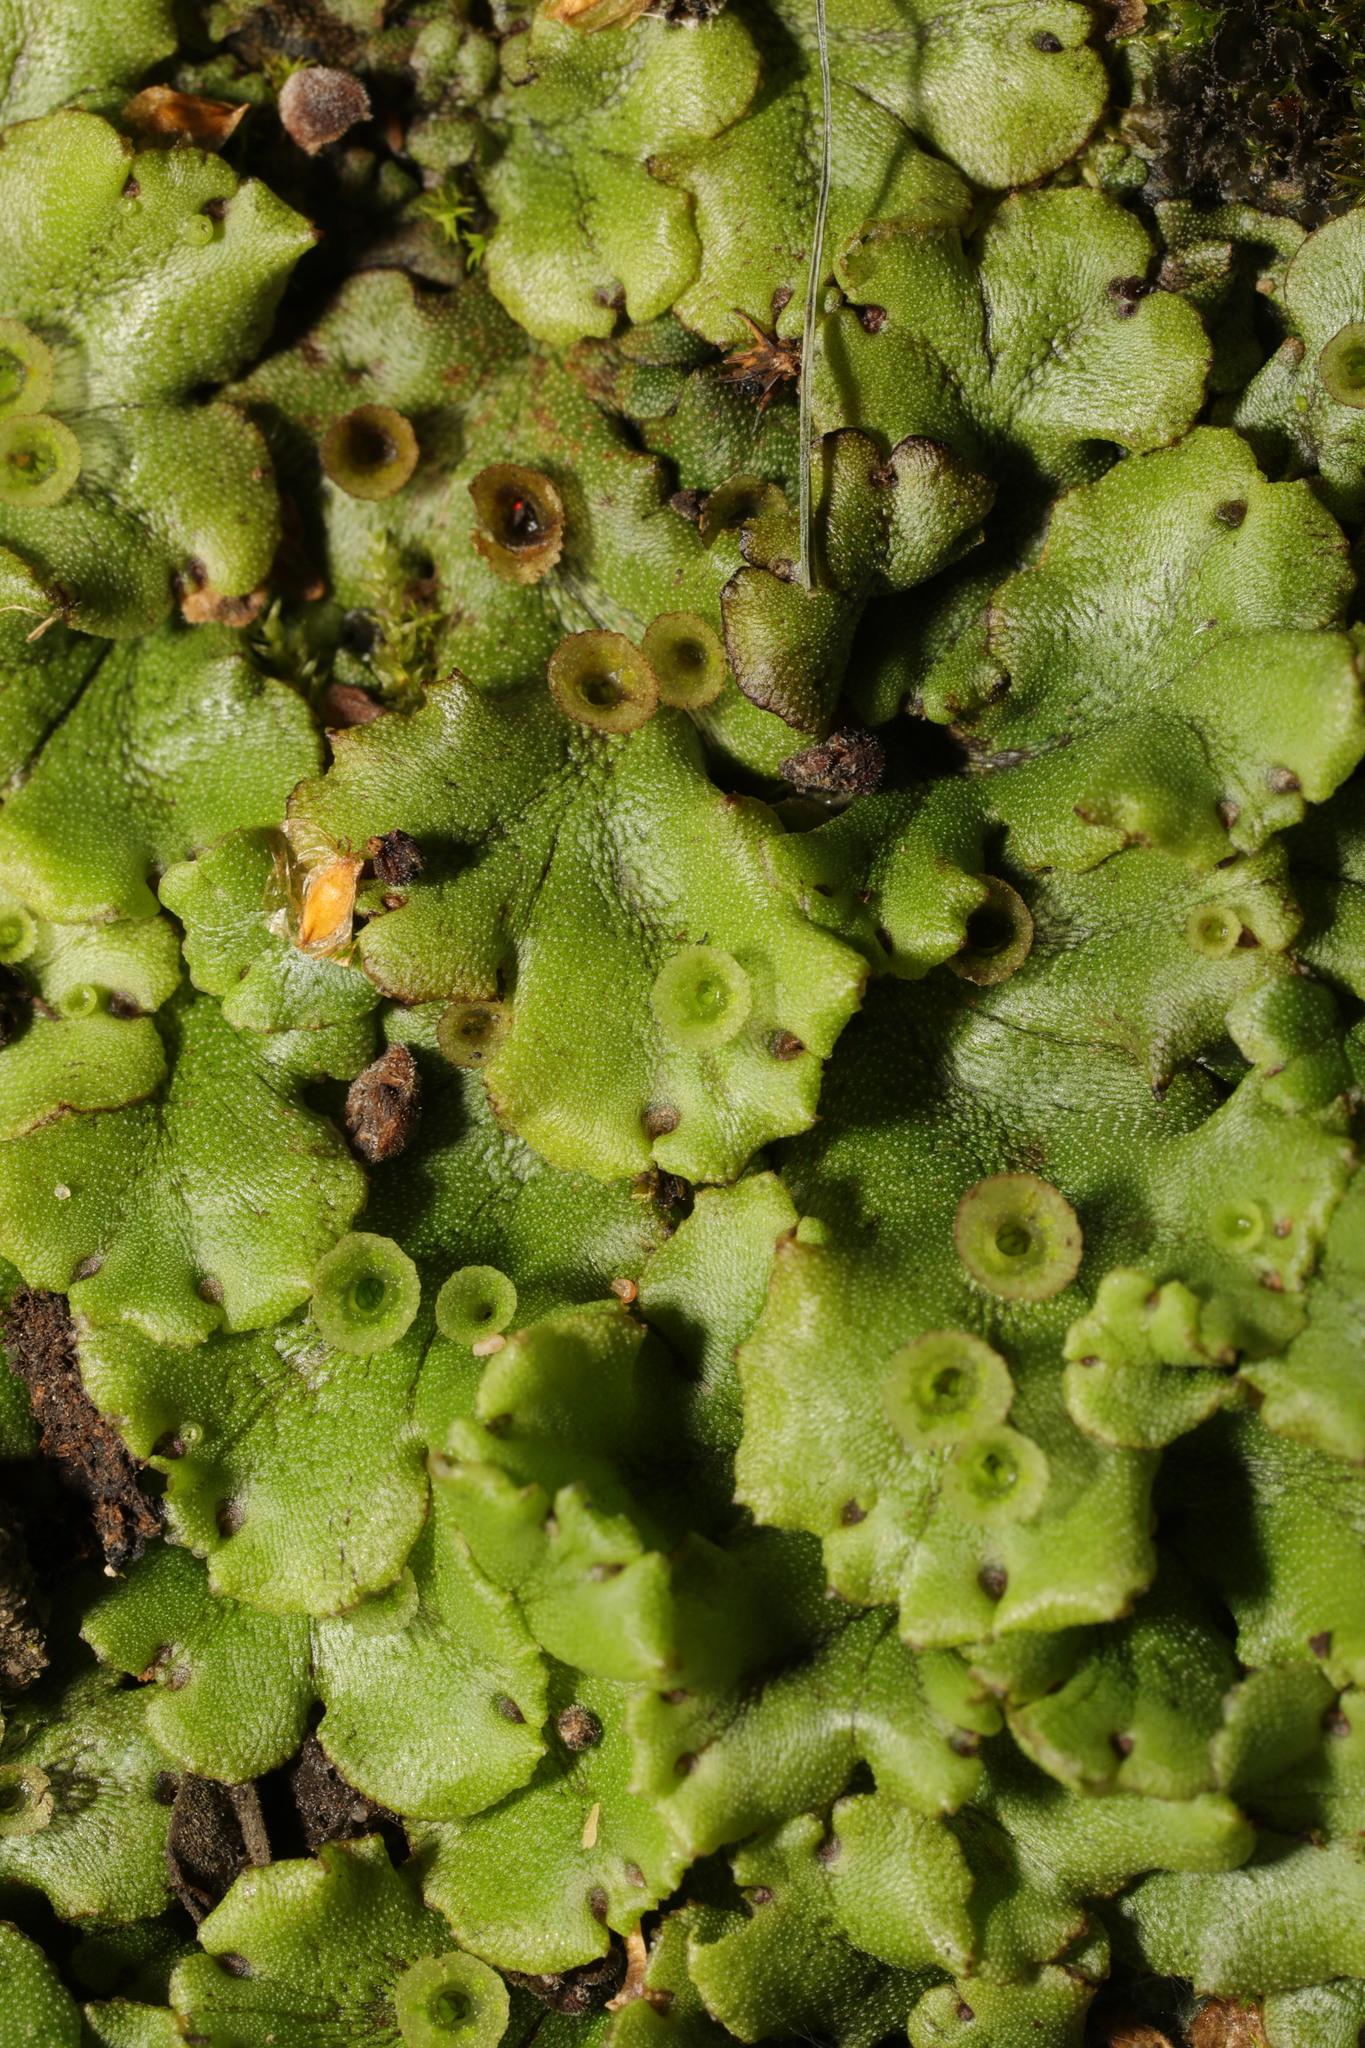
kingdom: Plantae
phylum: Marchantiophyta
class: Marchantiopsida
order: Marchantiales
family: Marchantiaceae
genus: Marchantia
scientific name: Marchantia polymorpha
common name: Common liverwort
